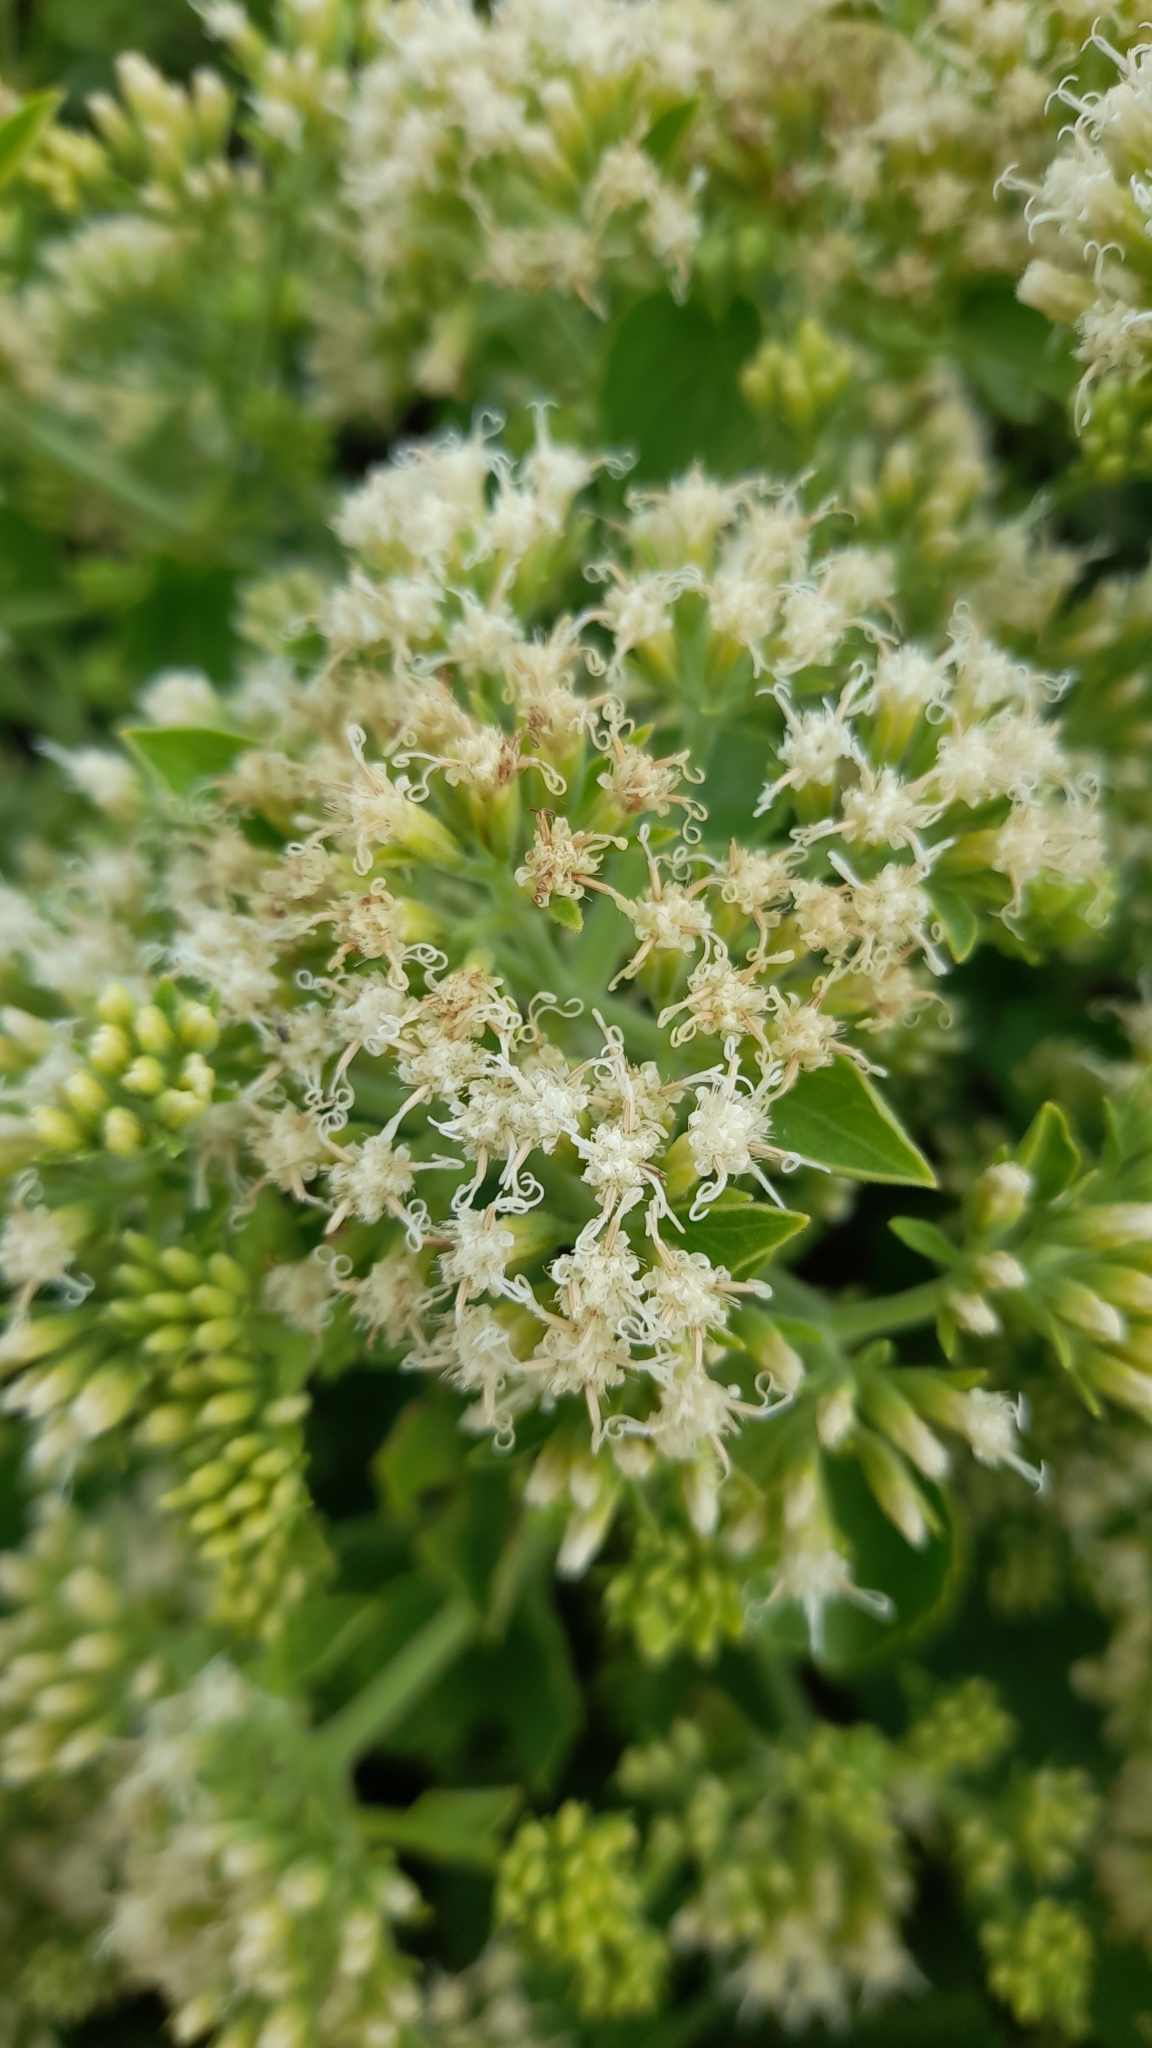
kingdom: Plantae
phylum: Tracheophyta
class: Magnoliopsida
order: Asterales
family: Asteraceae
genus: Mikania
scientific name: Mikania cordifolia
